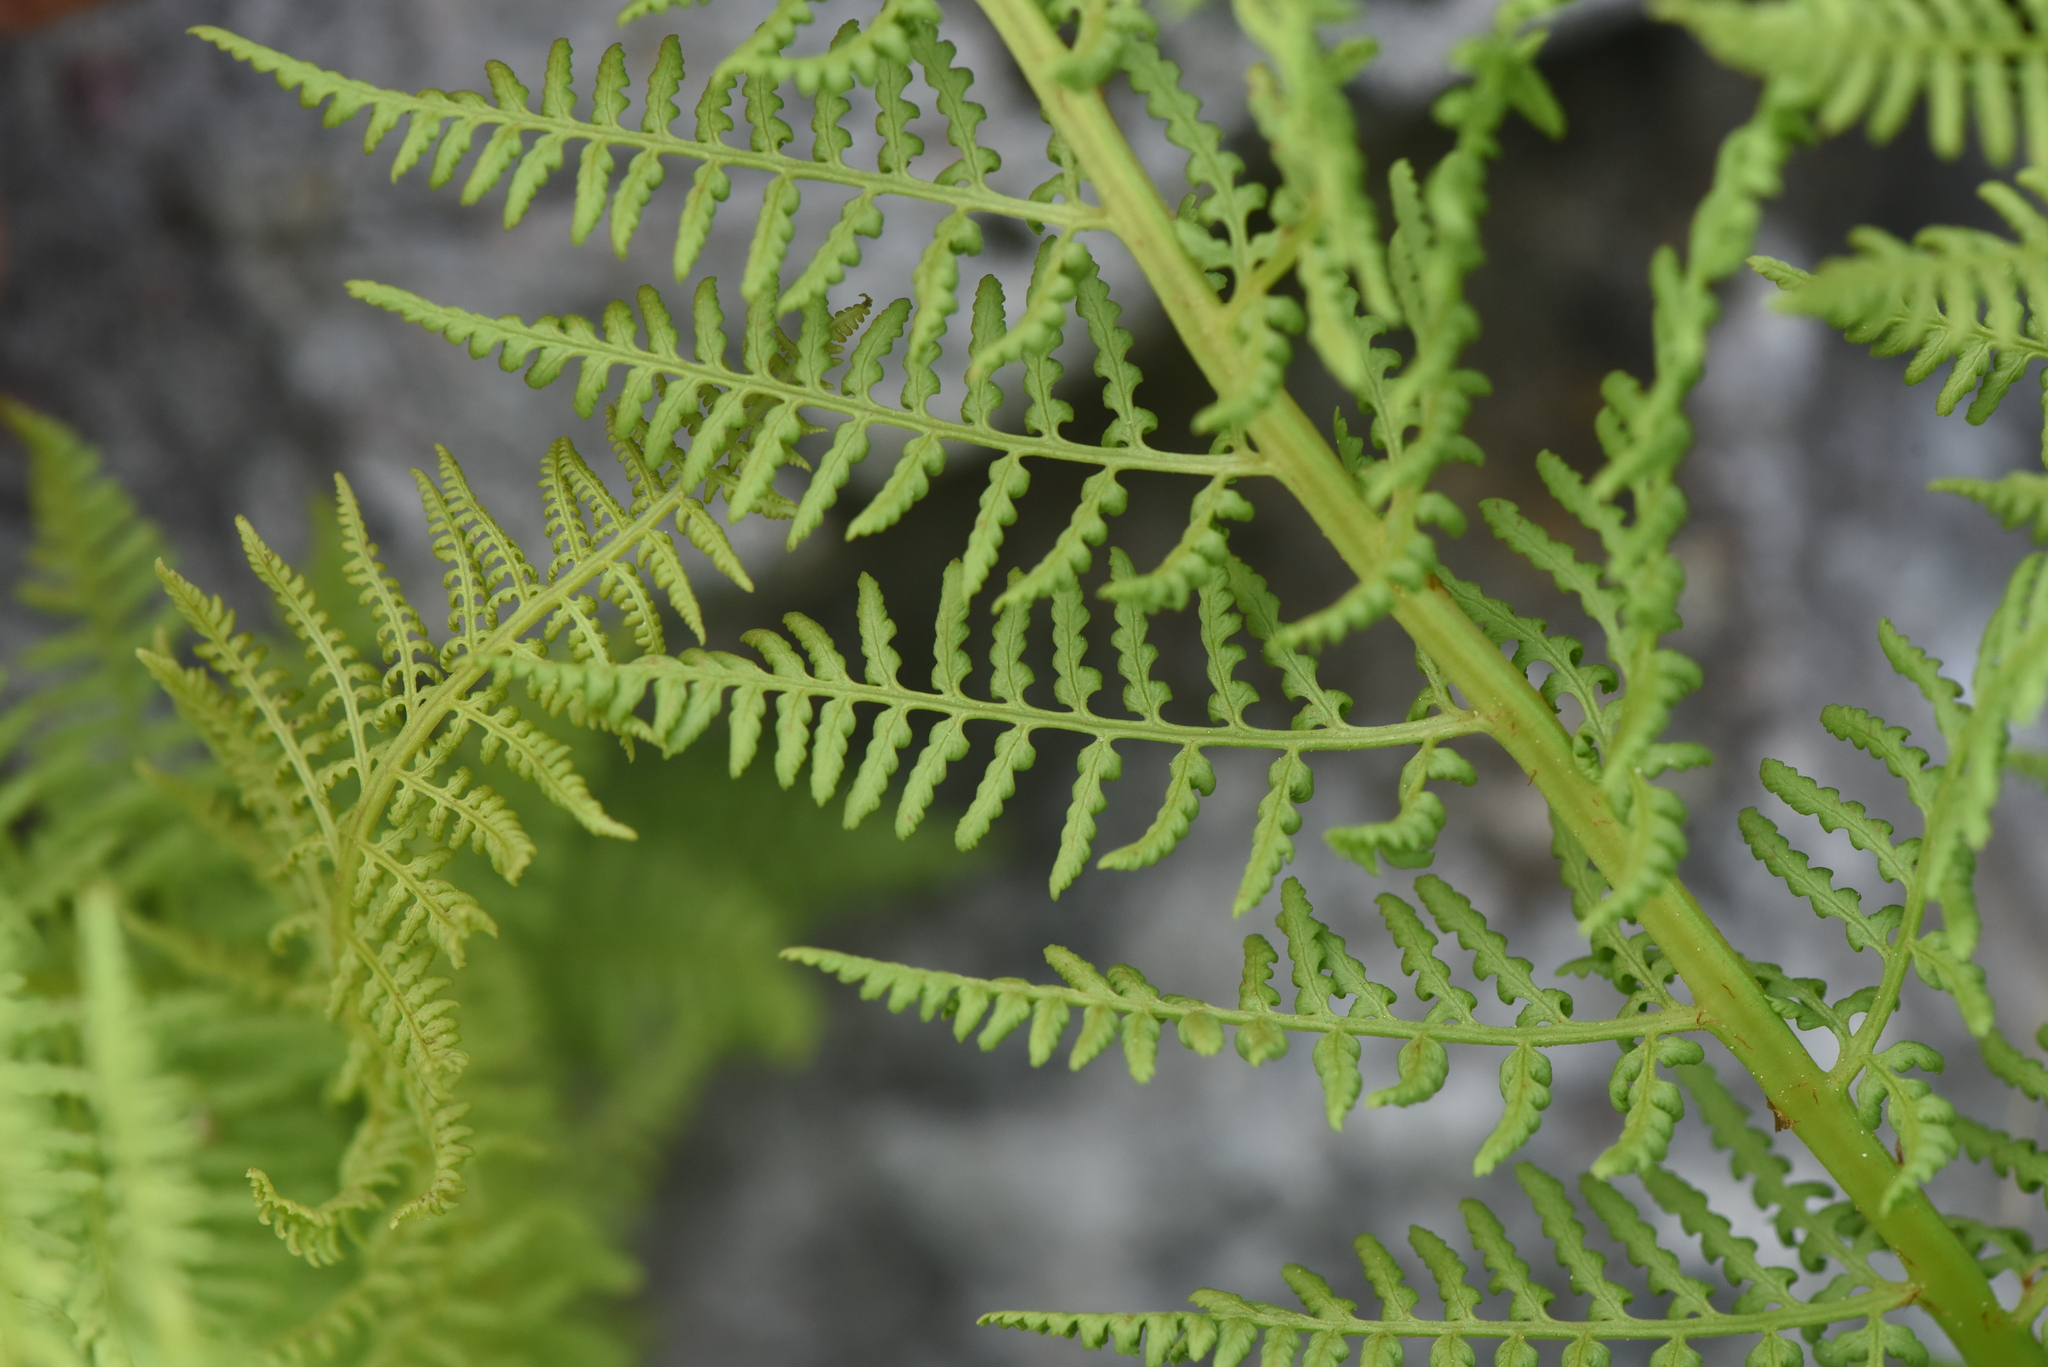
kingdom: Plantae
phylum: Tracheophyta
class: Polypodiopsida
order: Polypodiales
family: Athyriaceae
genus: Athyrium
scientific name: Athyrium americanum
